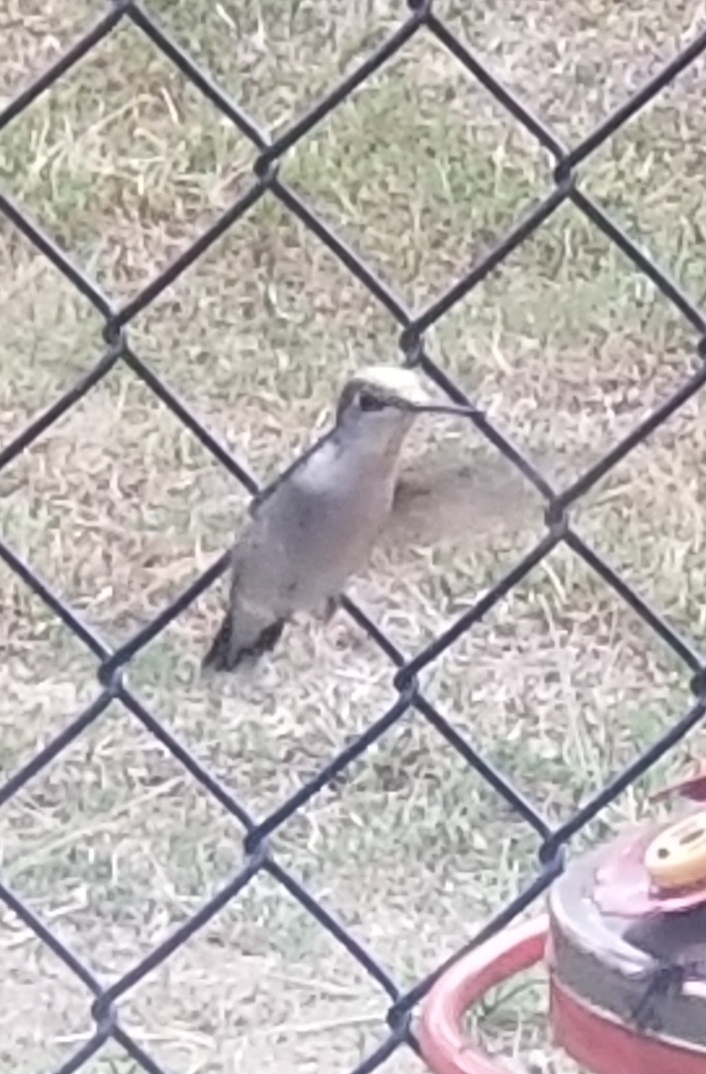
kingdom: Animalia
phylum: Chordata
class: Aves
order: Apodiformes
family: Trochilidae
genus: Archilochus
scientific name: Archilochus colubris
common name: Ruby-throated hummingbird
